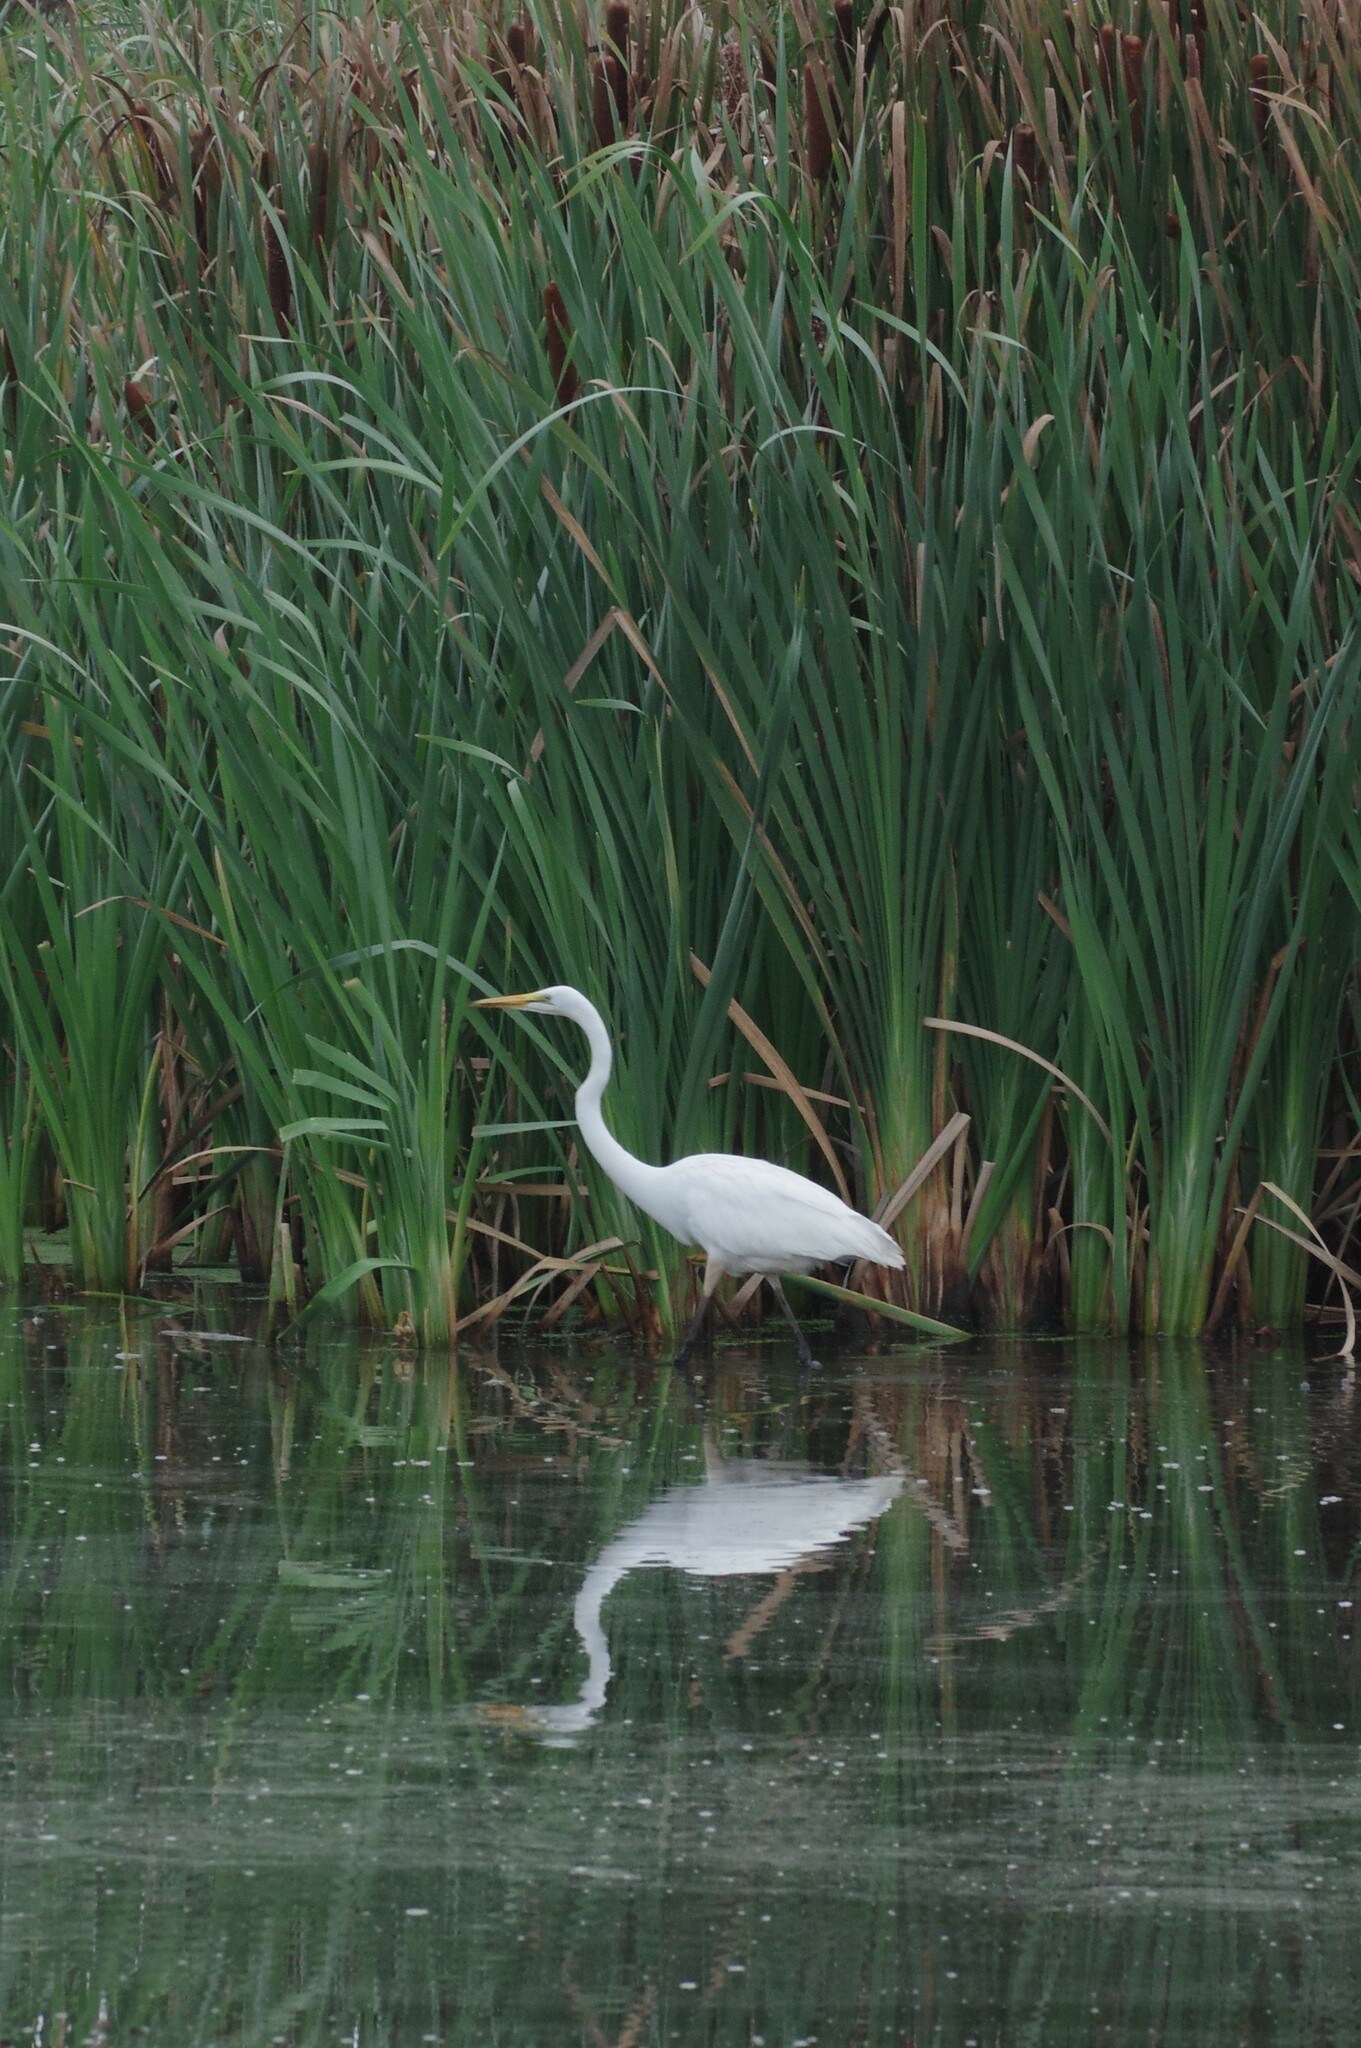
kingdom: Animalia
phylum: Chordata
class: Aves
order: Pelecaniformes
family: Ardeidae
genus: Ardea
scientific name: Ardea alba
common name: Great egret
